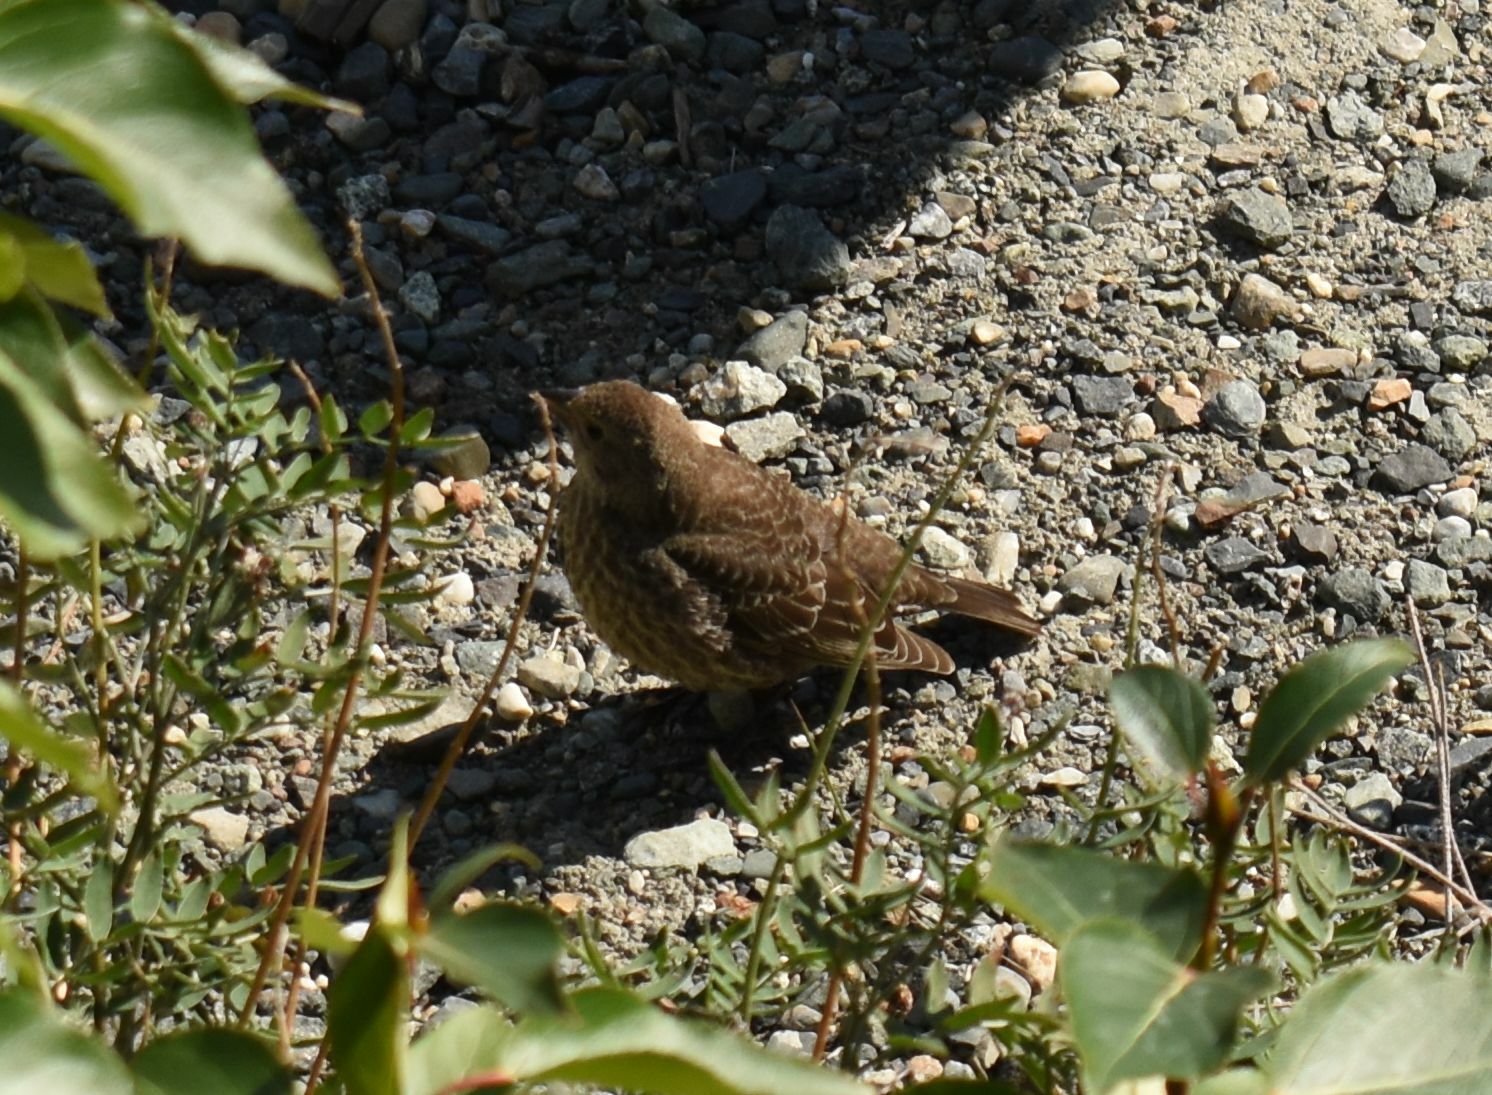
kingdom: Animalia
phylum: Chordata
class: Aves
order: Passeriformes
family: Icteridae
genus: Molothrus
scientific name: Molothrus ater
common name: Brown-headed cowbird
